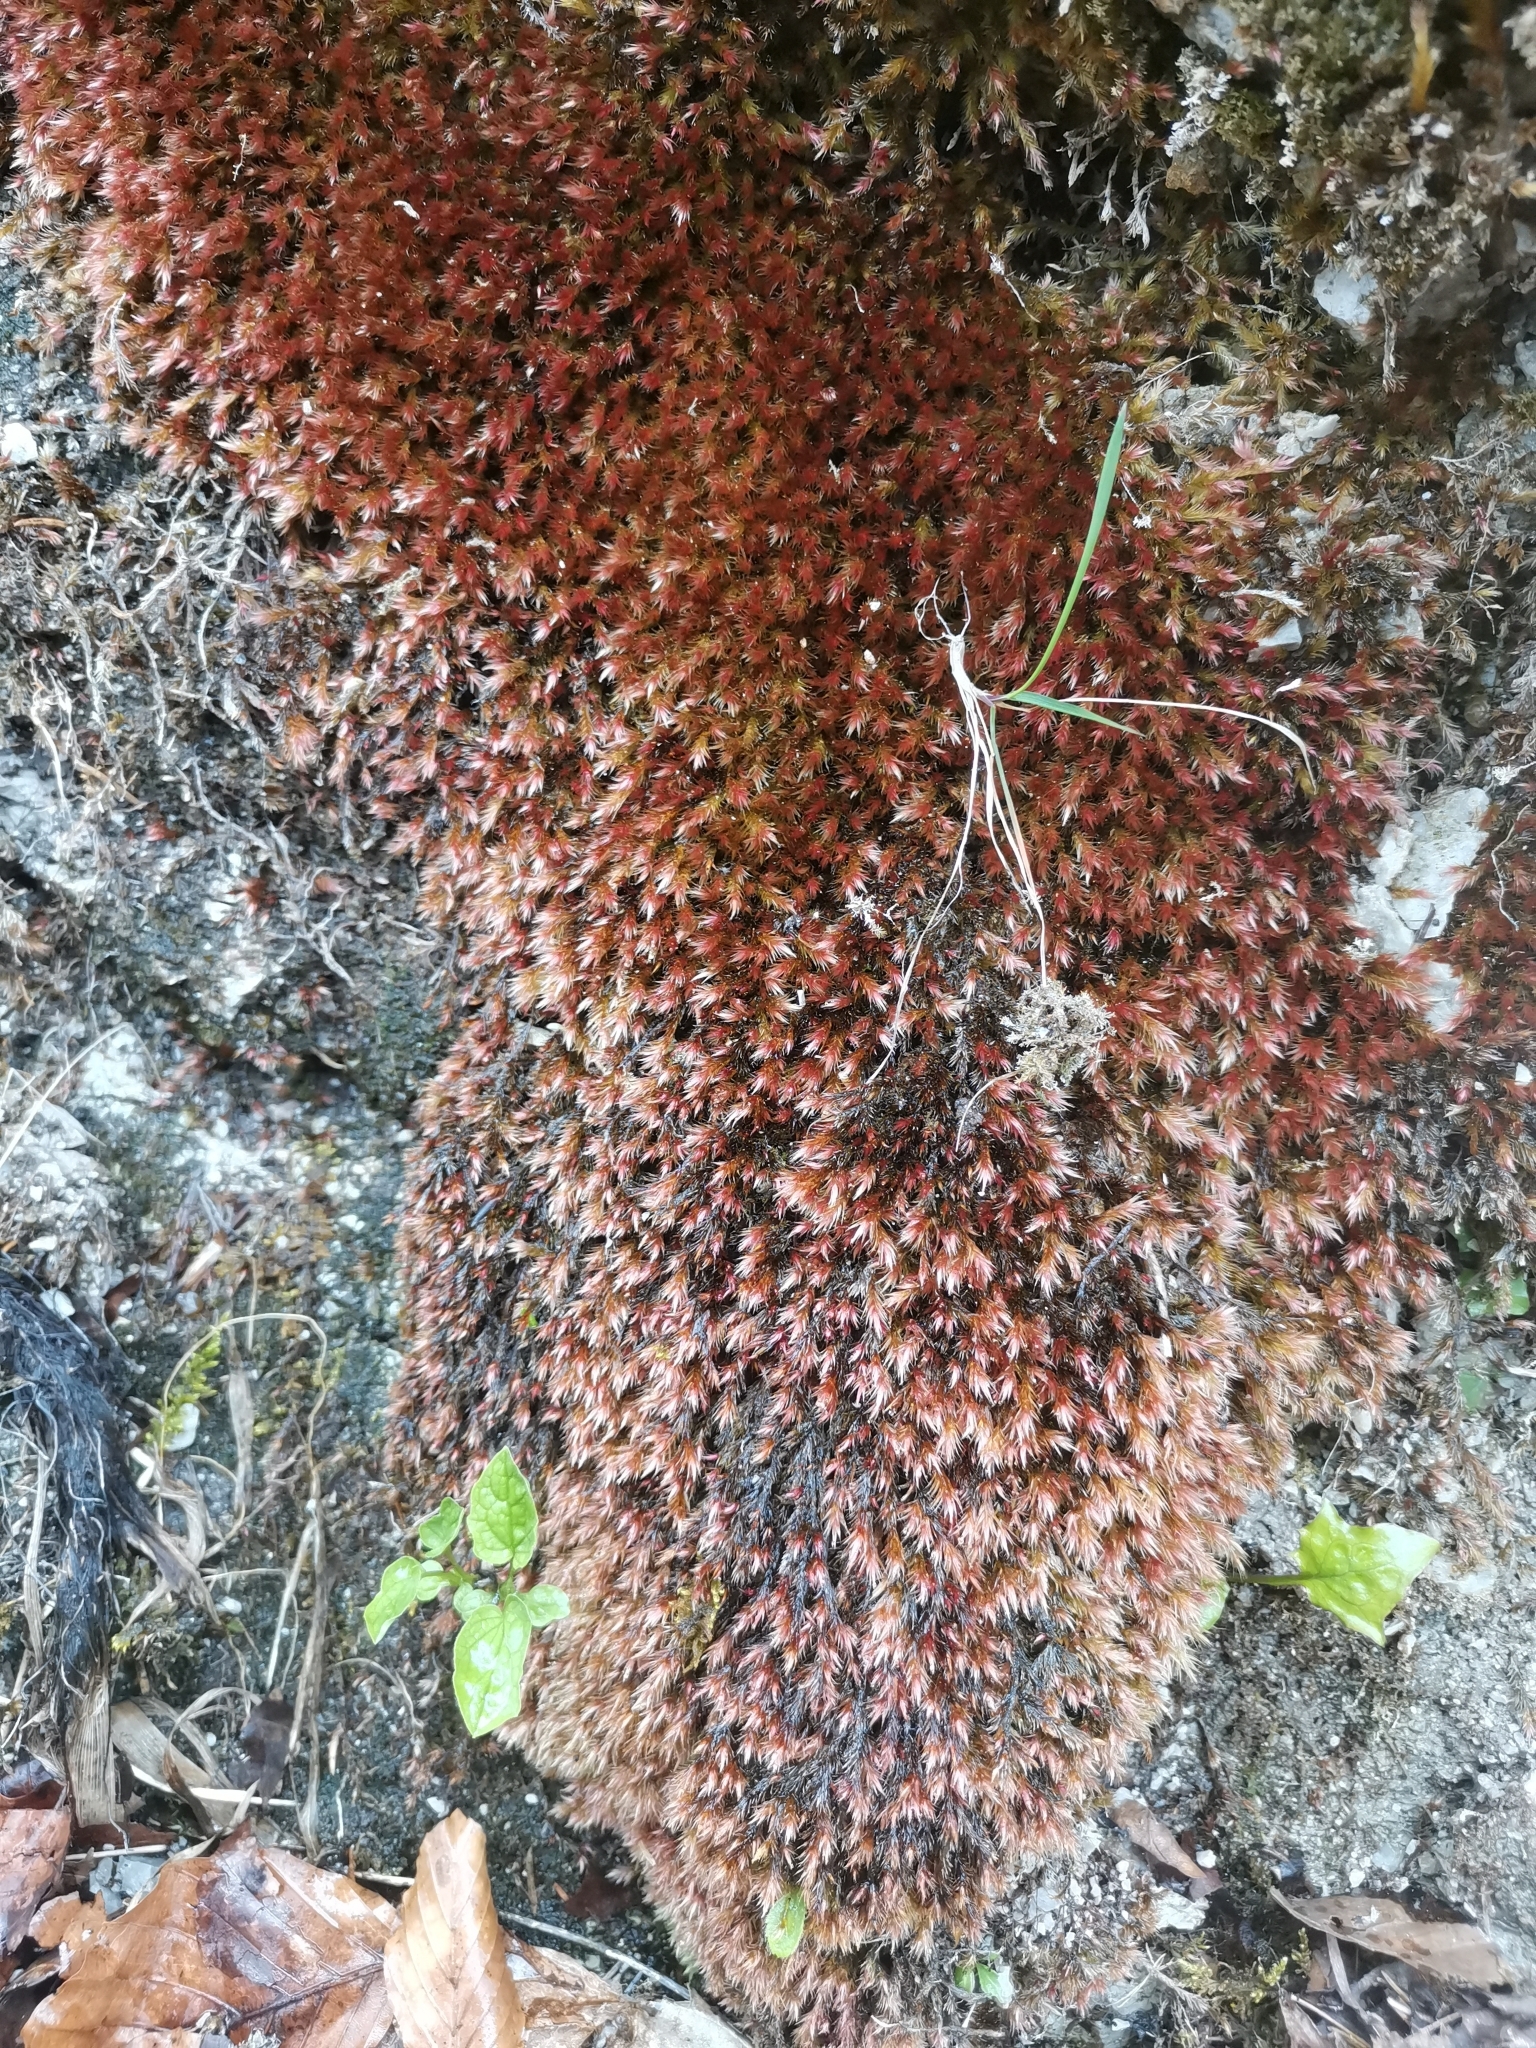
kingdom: Plantae
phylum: Bryophyta
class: Bryopsida
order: Hypnales
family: Plagiotheciaceae
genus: Orthothecium
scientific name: Orthothecium rufescens
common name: Red leskea
